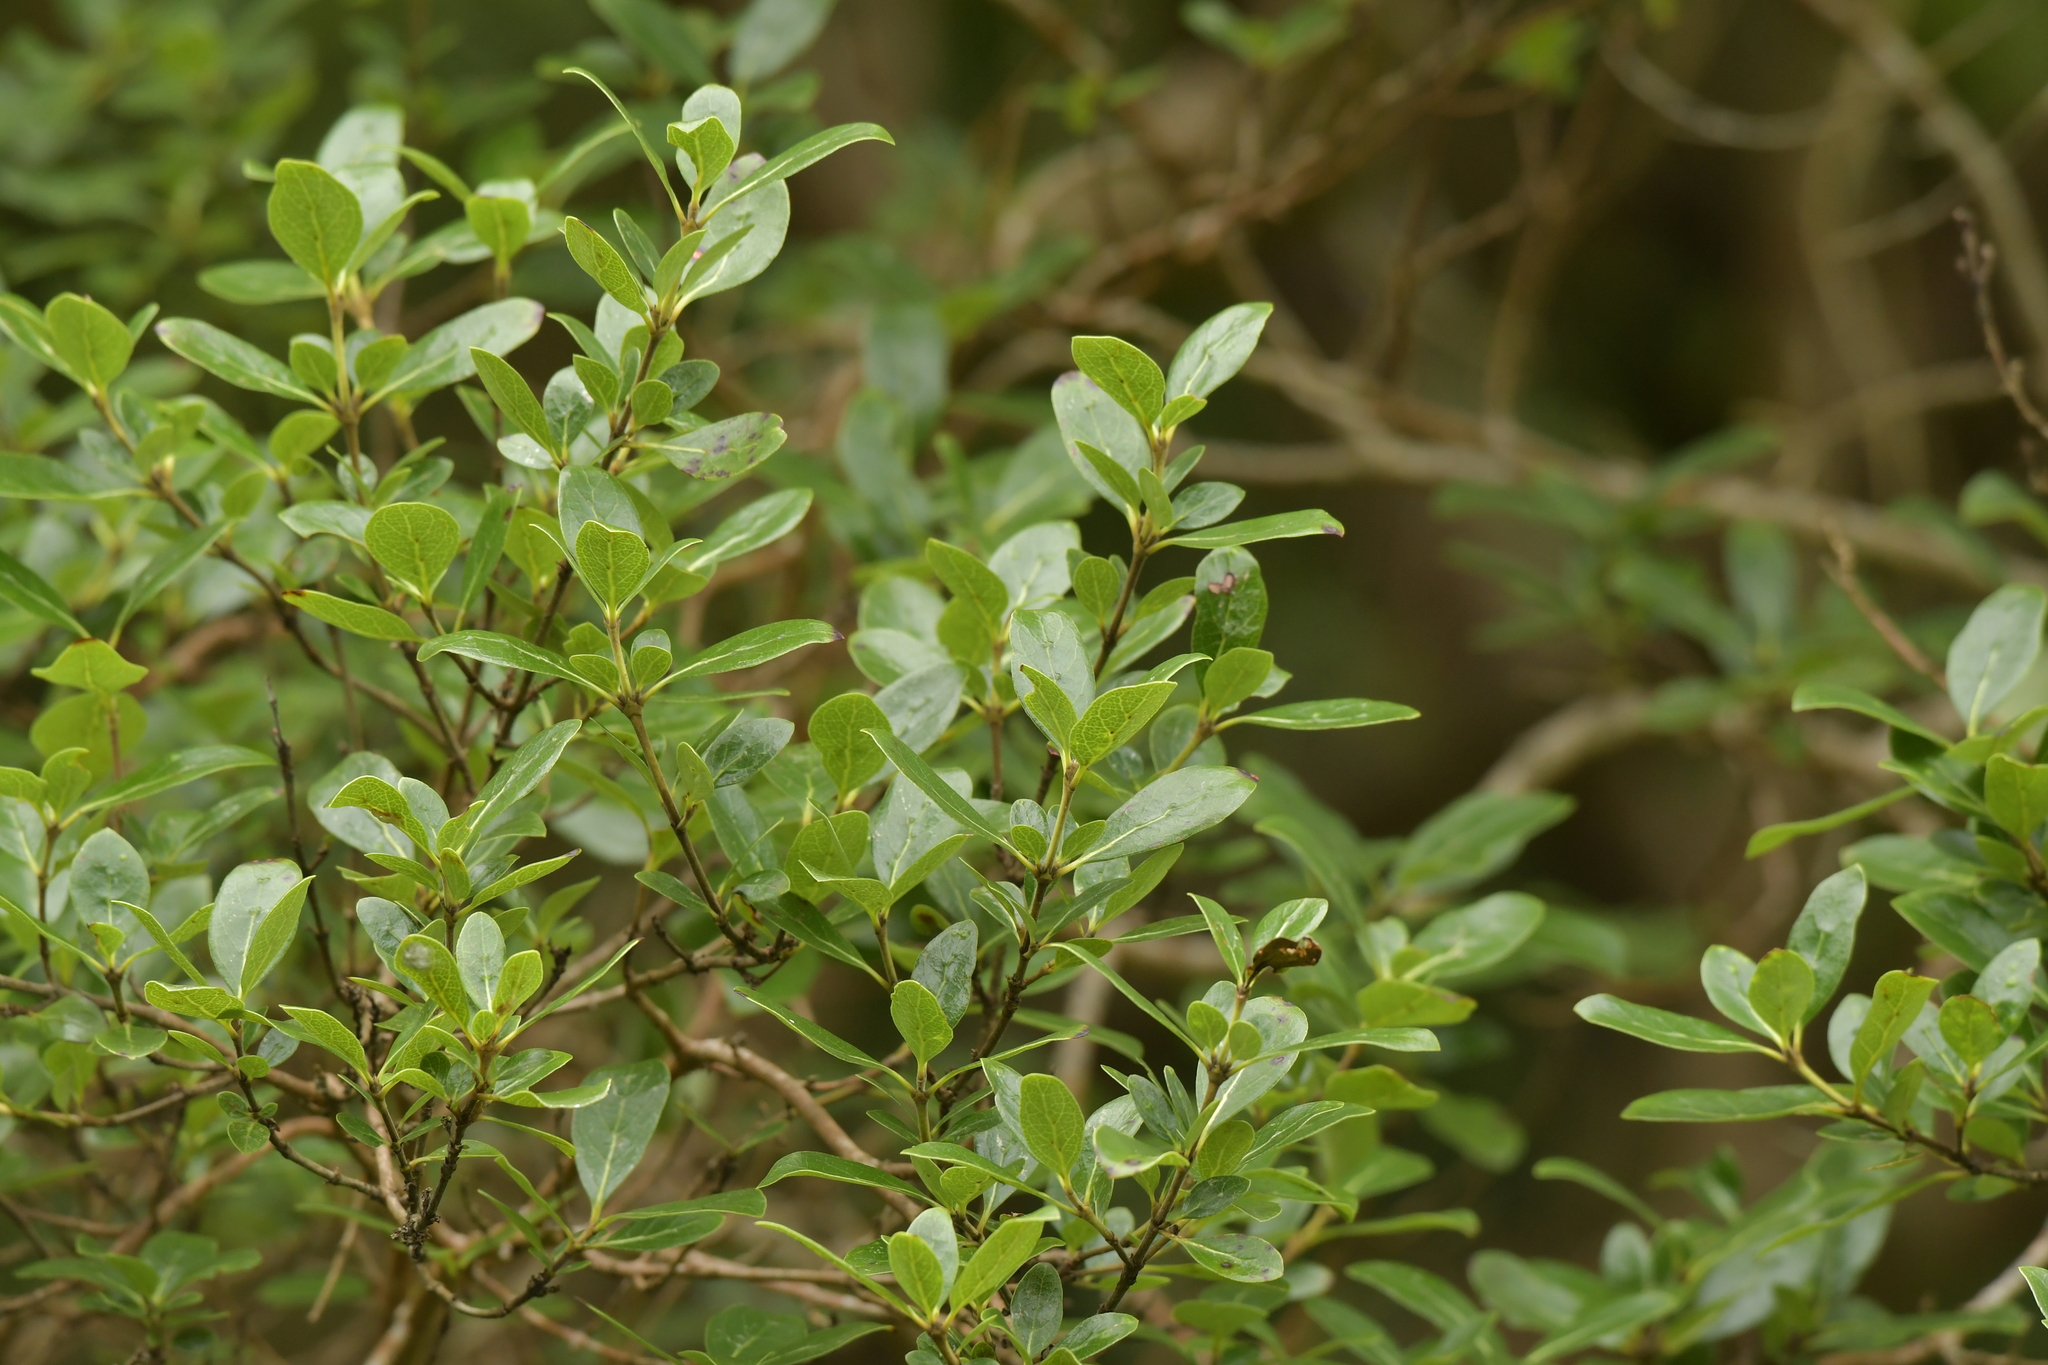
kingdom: Plantae
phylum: Tracheophyta
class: Magnoliopsida
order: Gentianales
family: Rubiaceae
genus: Coprosma
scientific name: Coprosma chathamica
